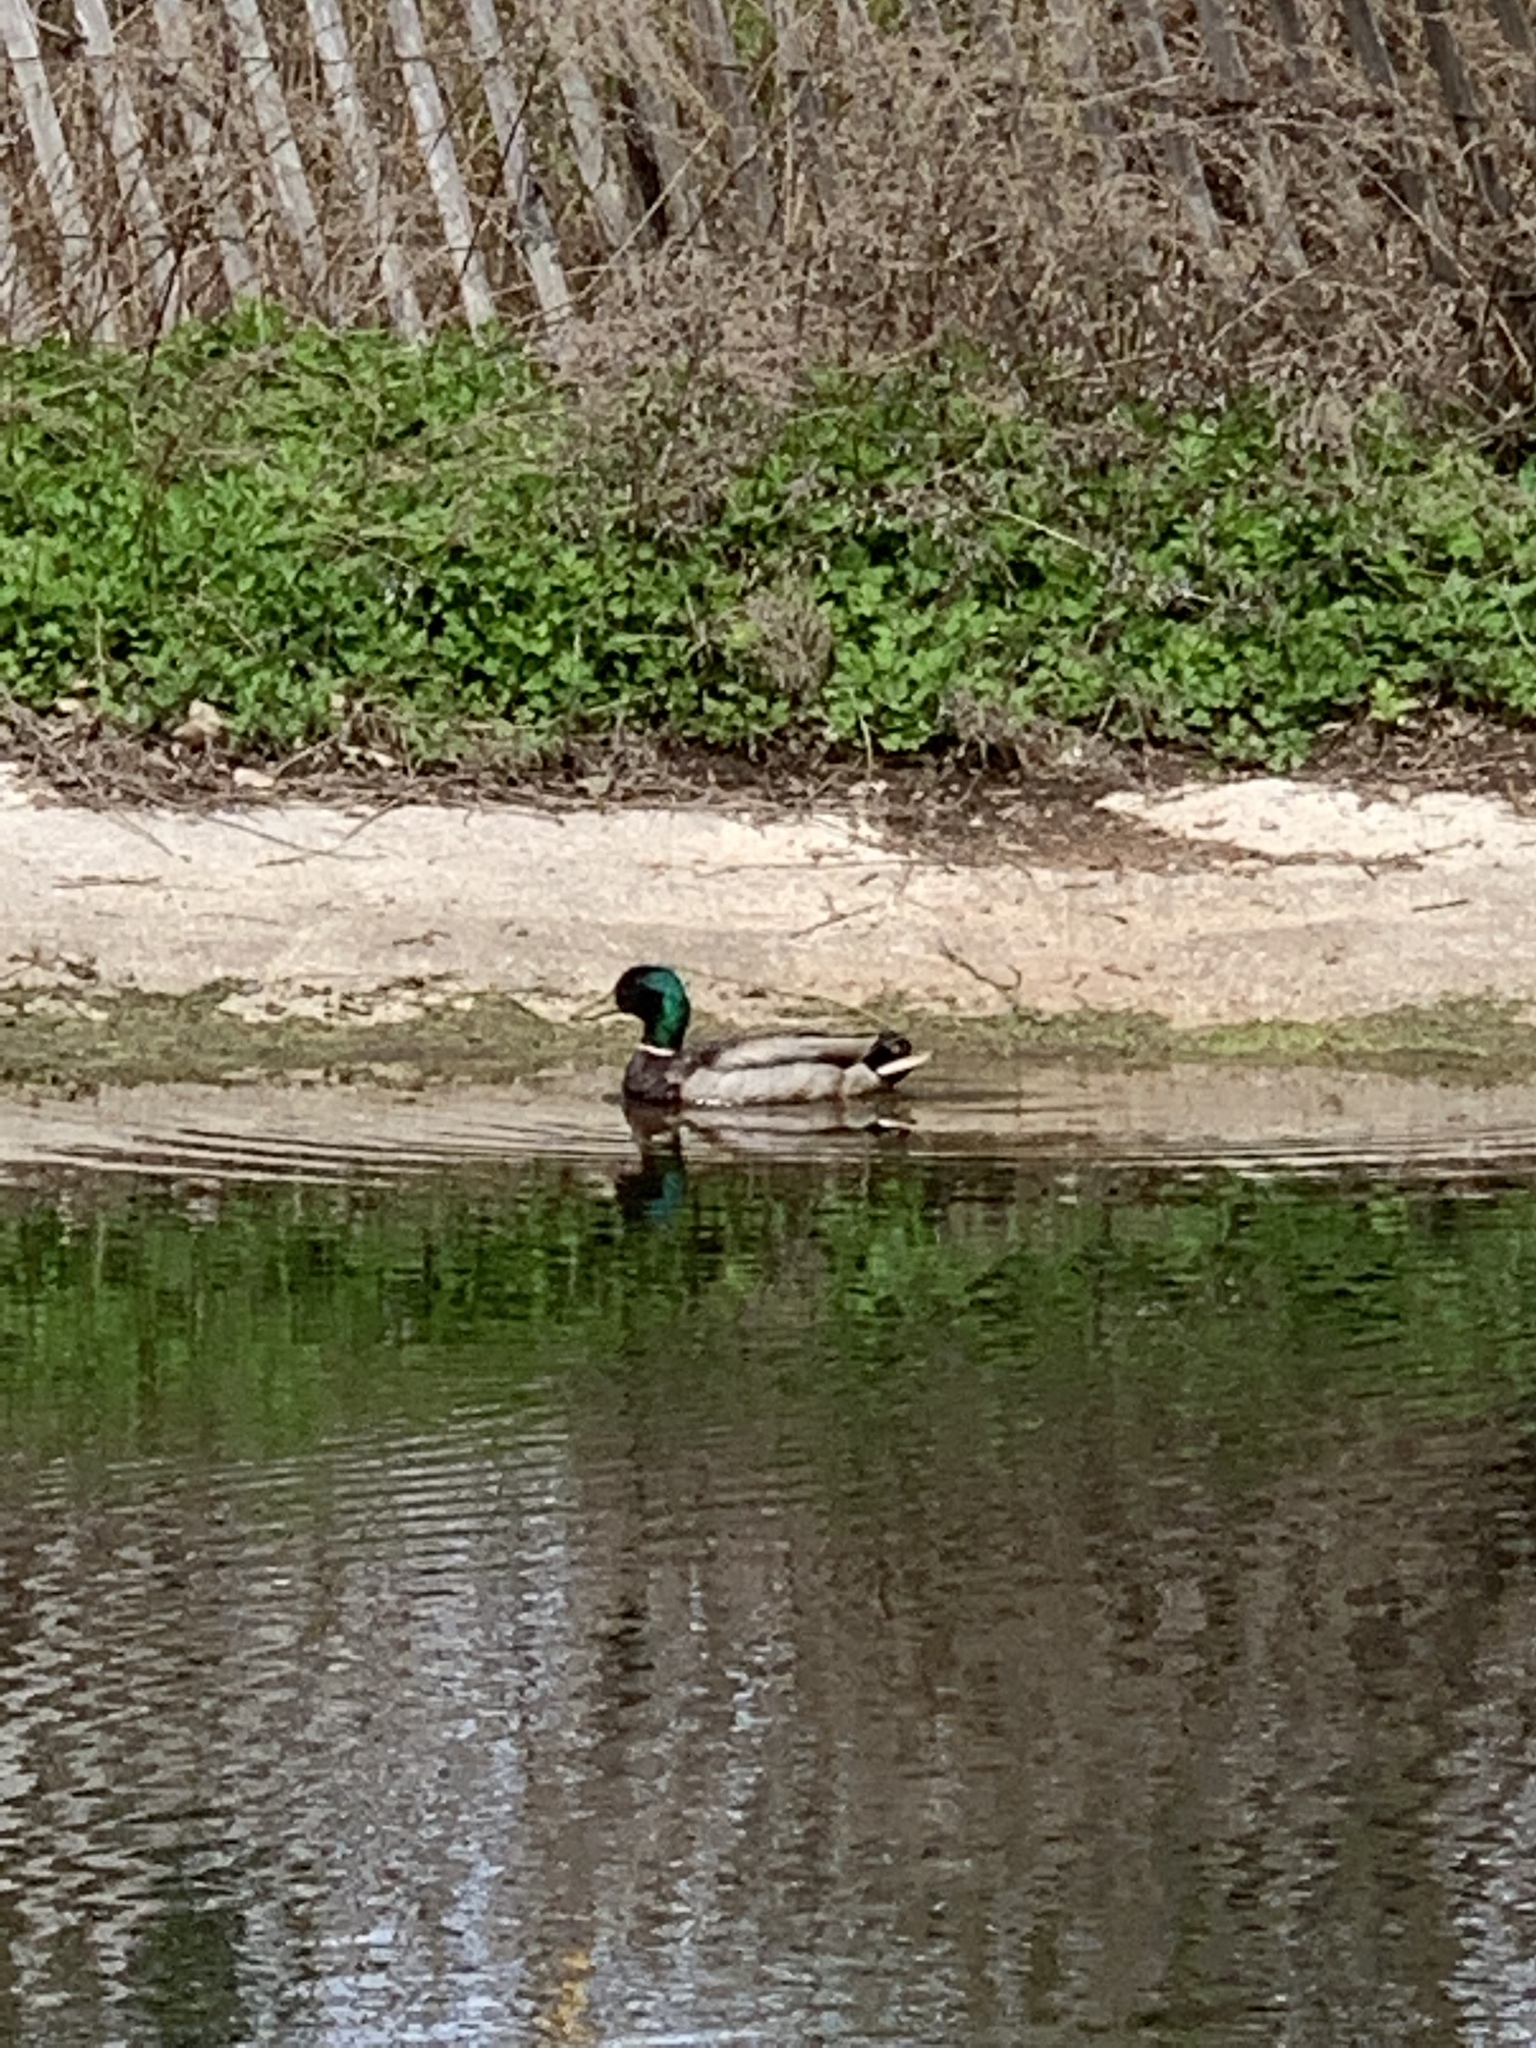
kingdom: Animalia
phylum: Chordata
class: Aves
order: Anseriformes
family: Anatidae
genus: Anas
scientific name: Anas platyrhynchos
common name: Mallard
